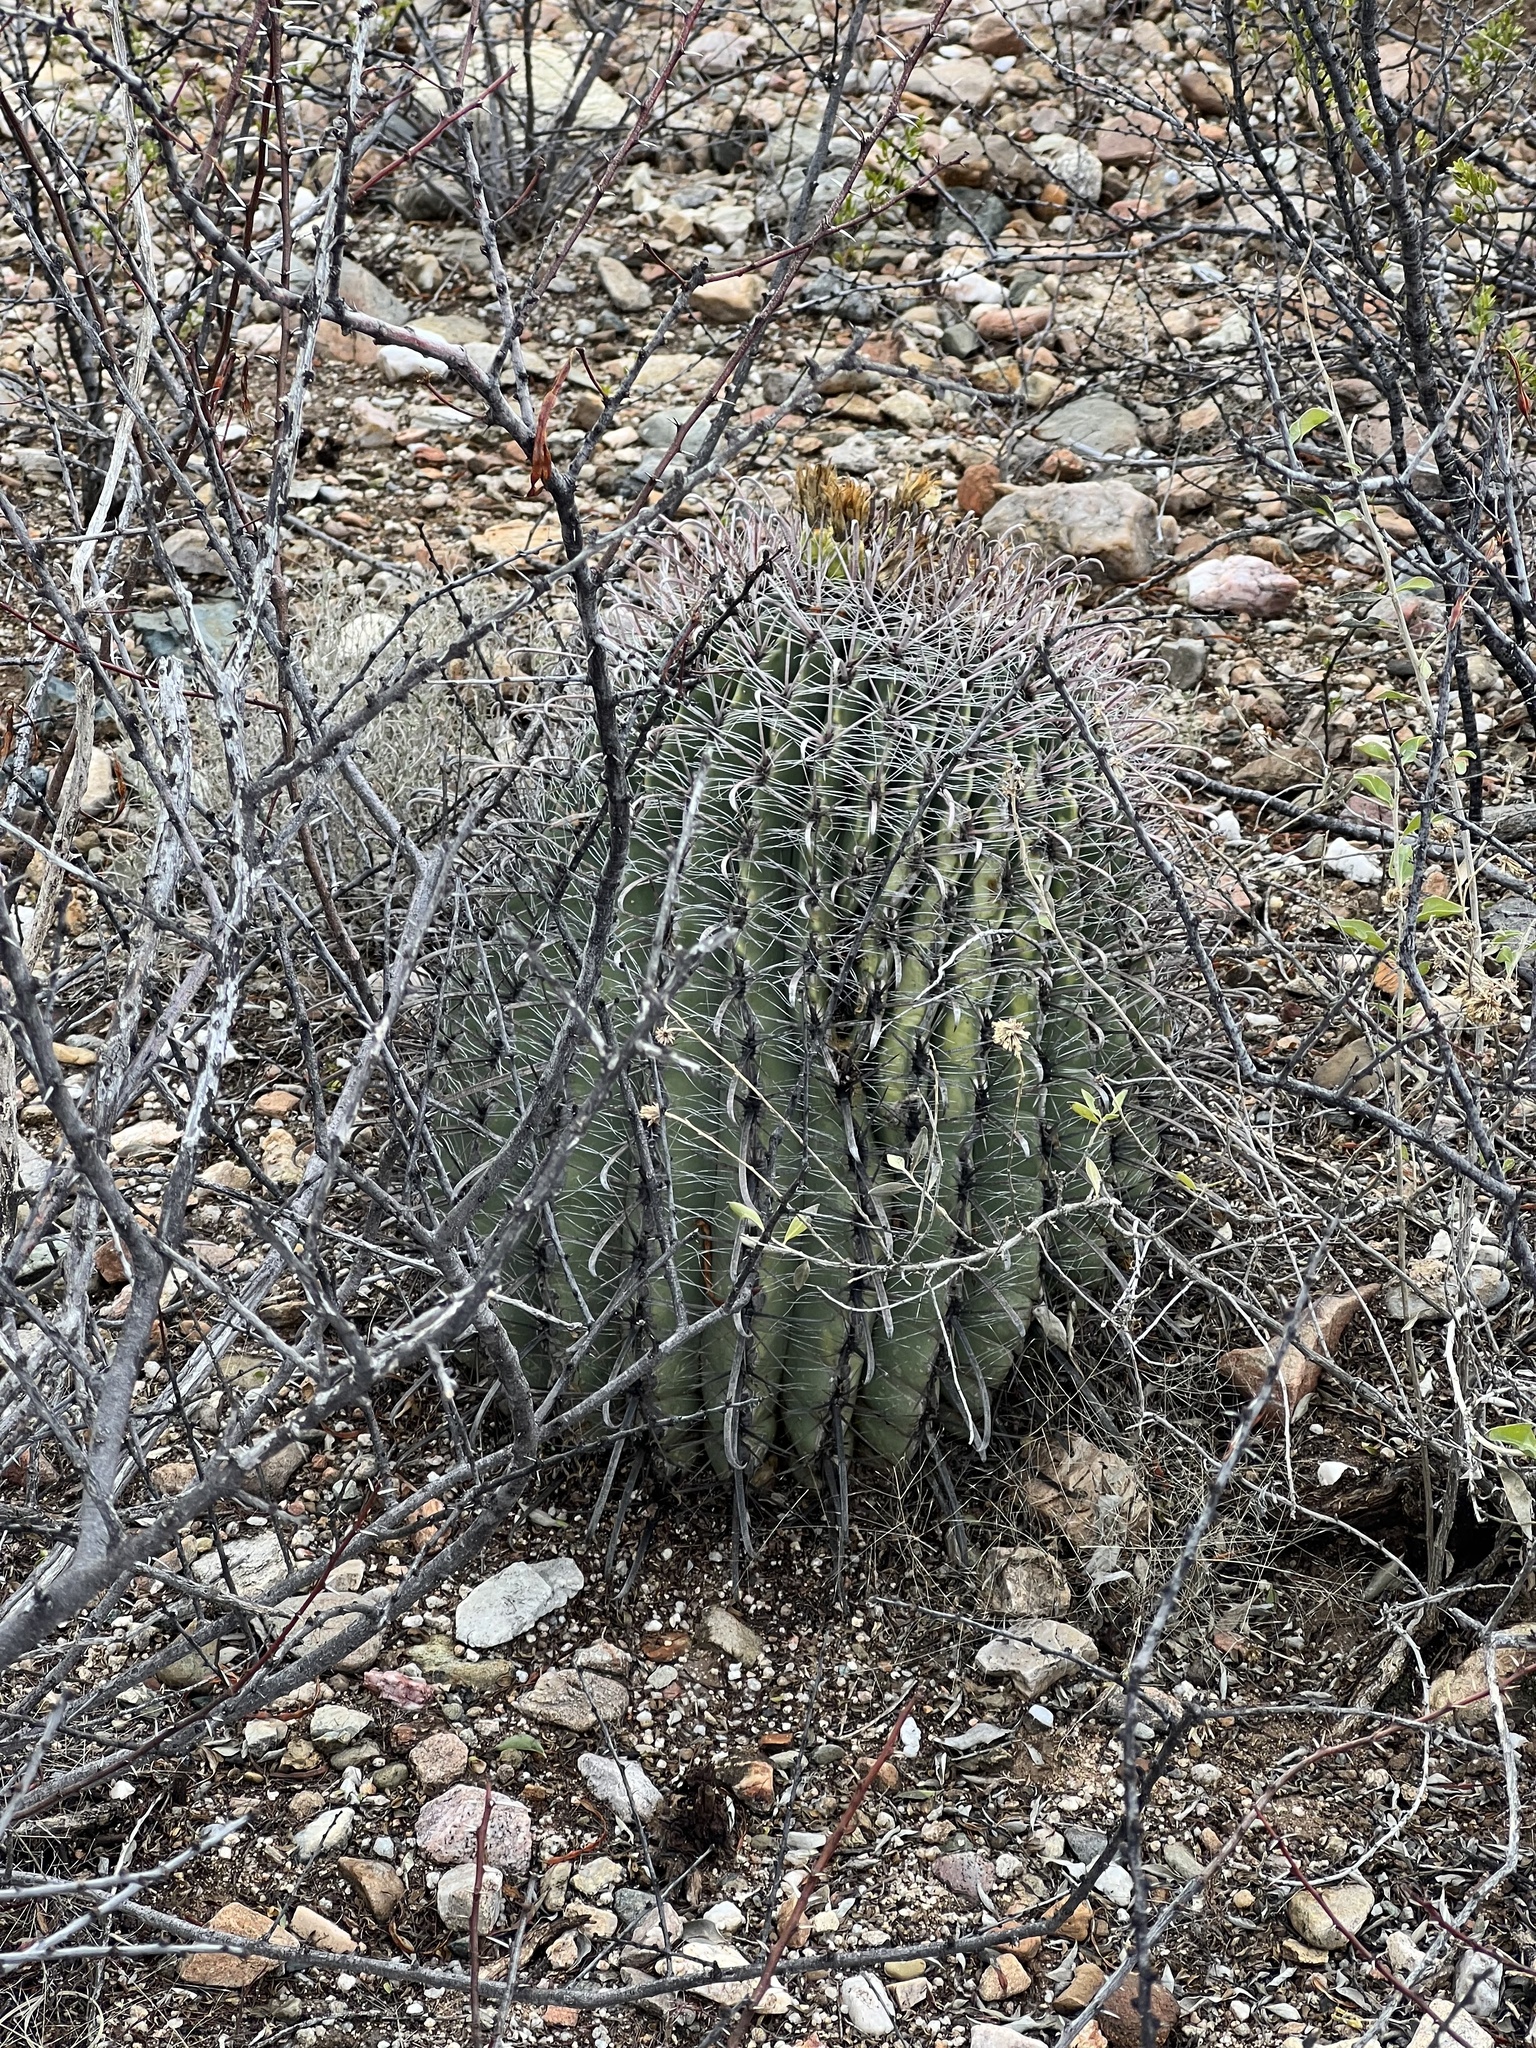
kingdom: Plantae
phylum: Tracheophyta
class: Magnoliopsida
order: Caryophyllales
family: Cactaceae
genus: Ferocactus
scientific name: Ferocactus wislizeni
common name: Candy barrel cactus
